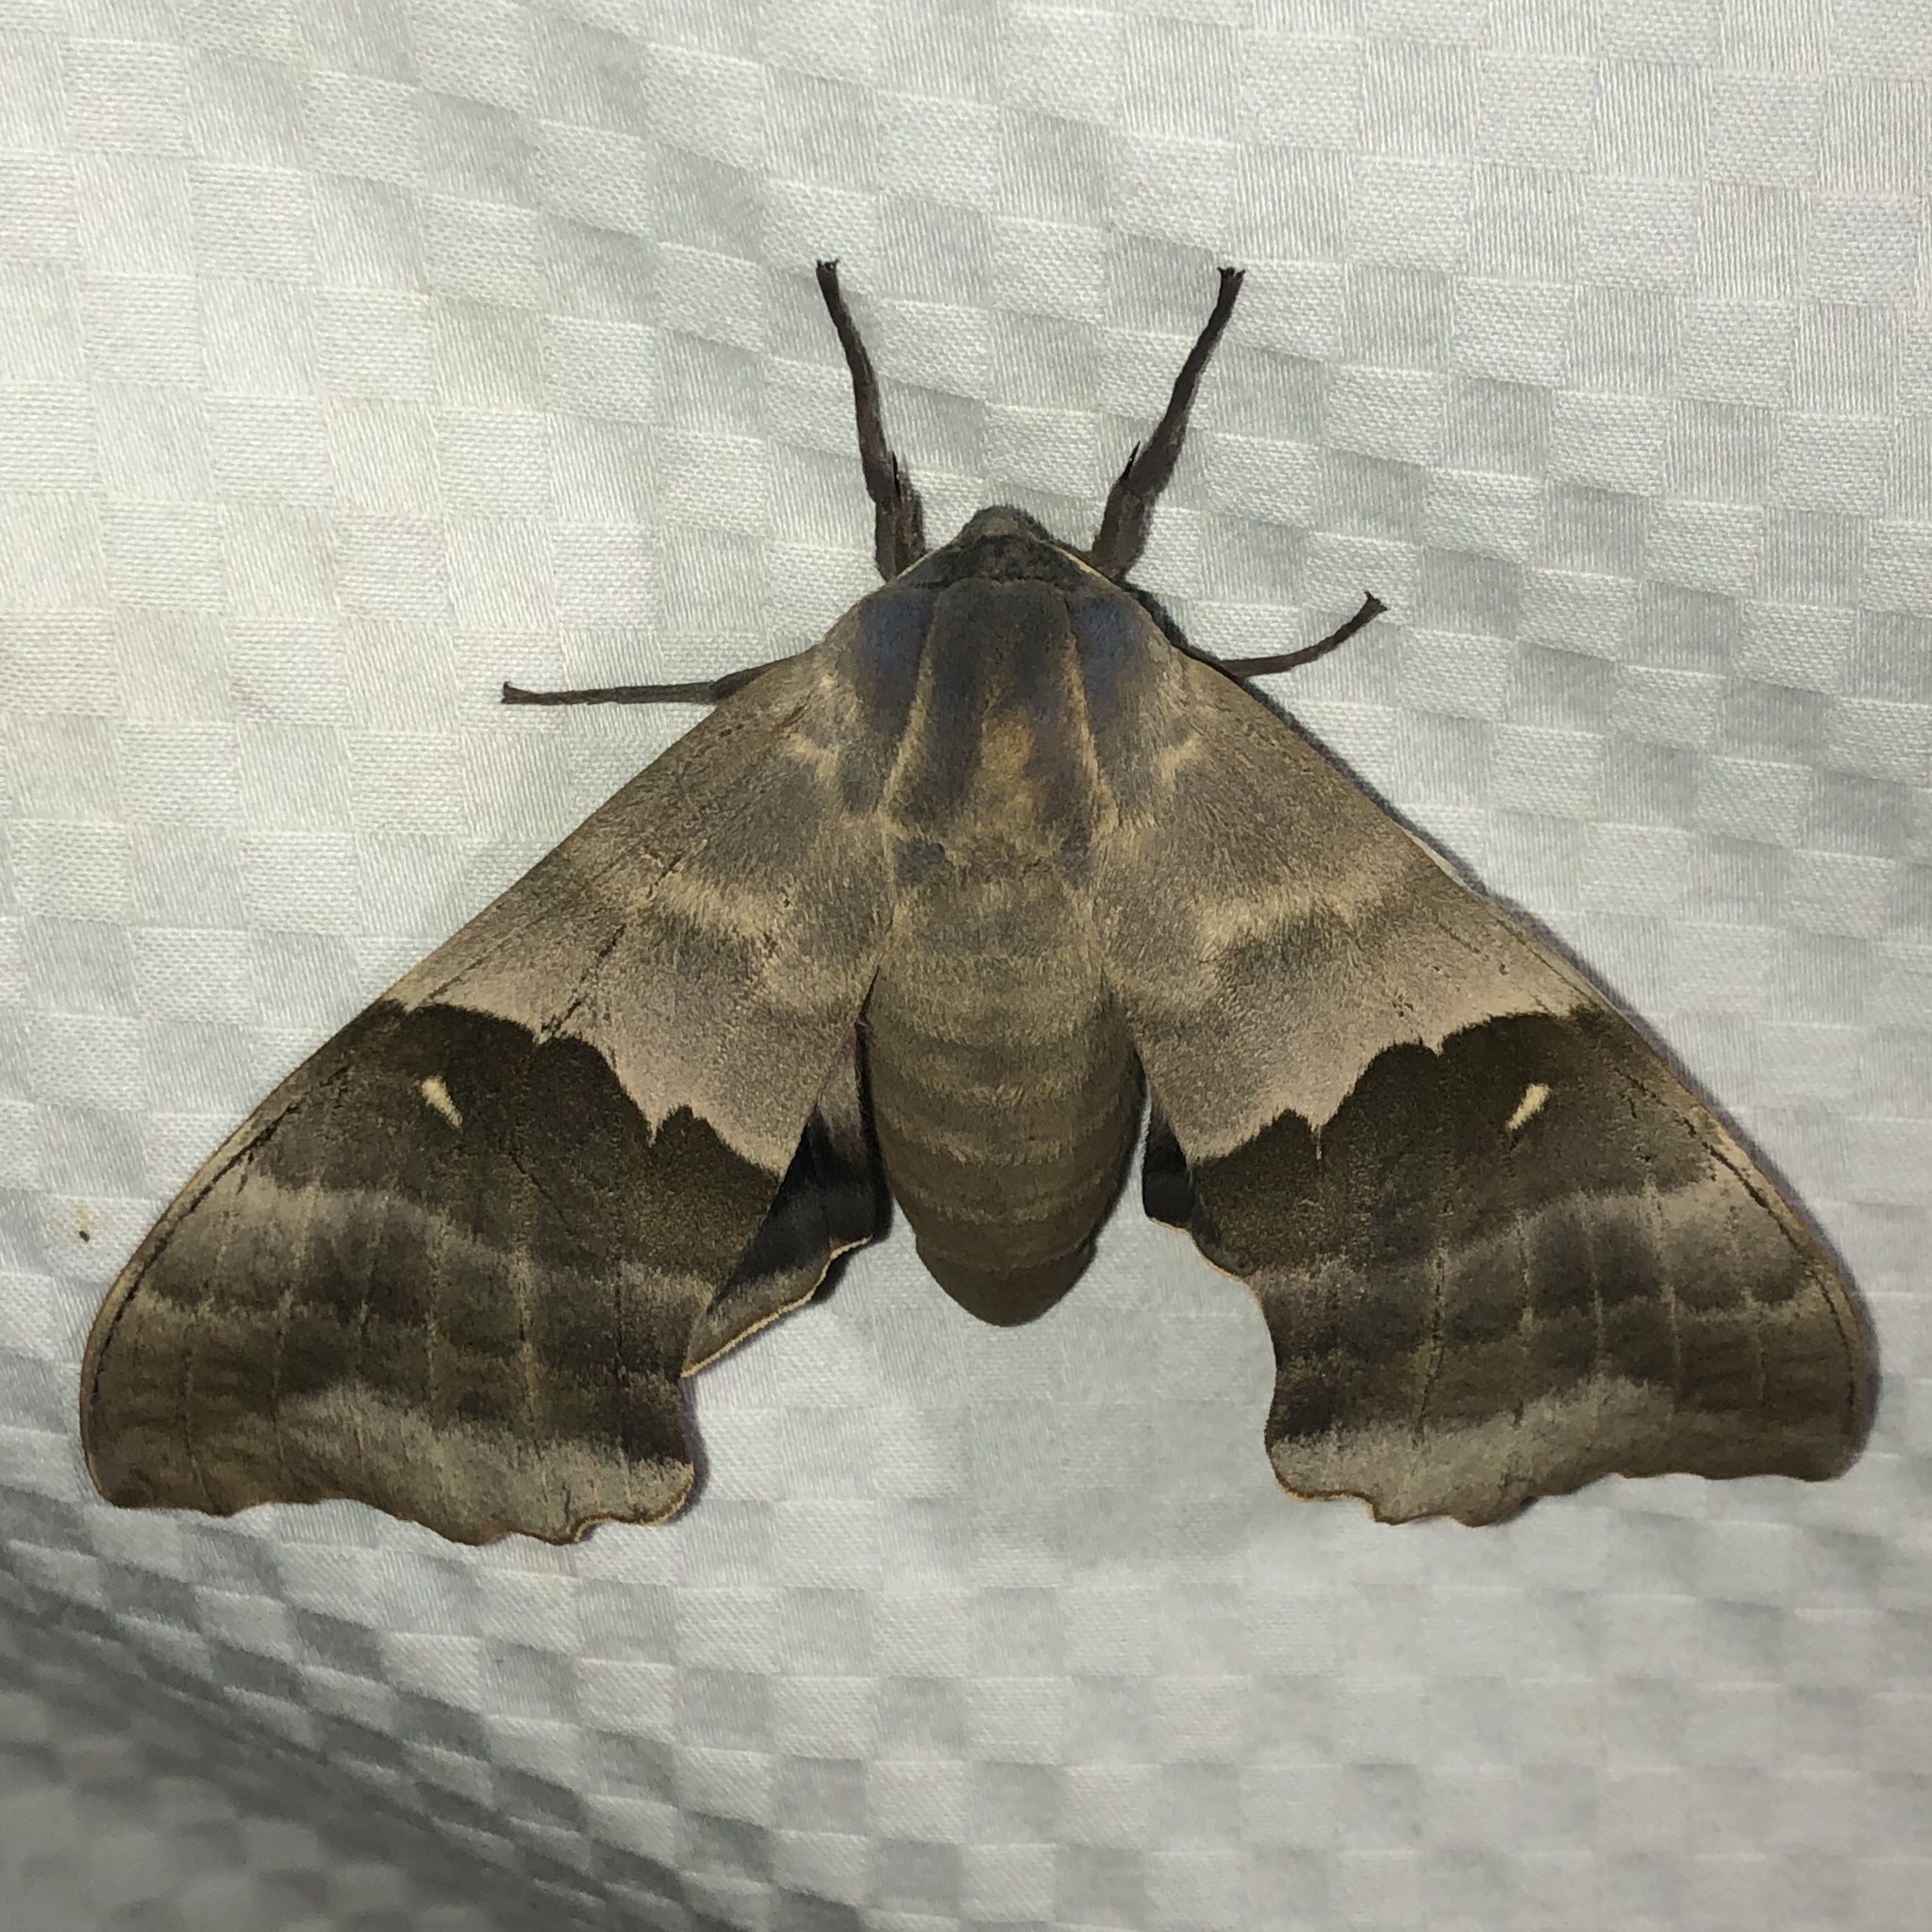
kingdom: Animalia
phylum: Arthropoda
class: Insecta
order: Lepidoptera
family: Sphingidae
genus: Pachysphinx
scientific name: Pachysphinx modesta
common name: Big poplar sphinx
